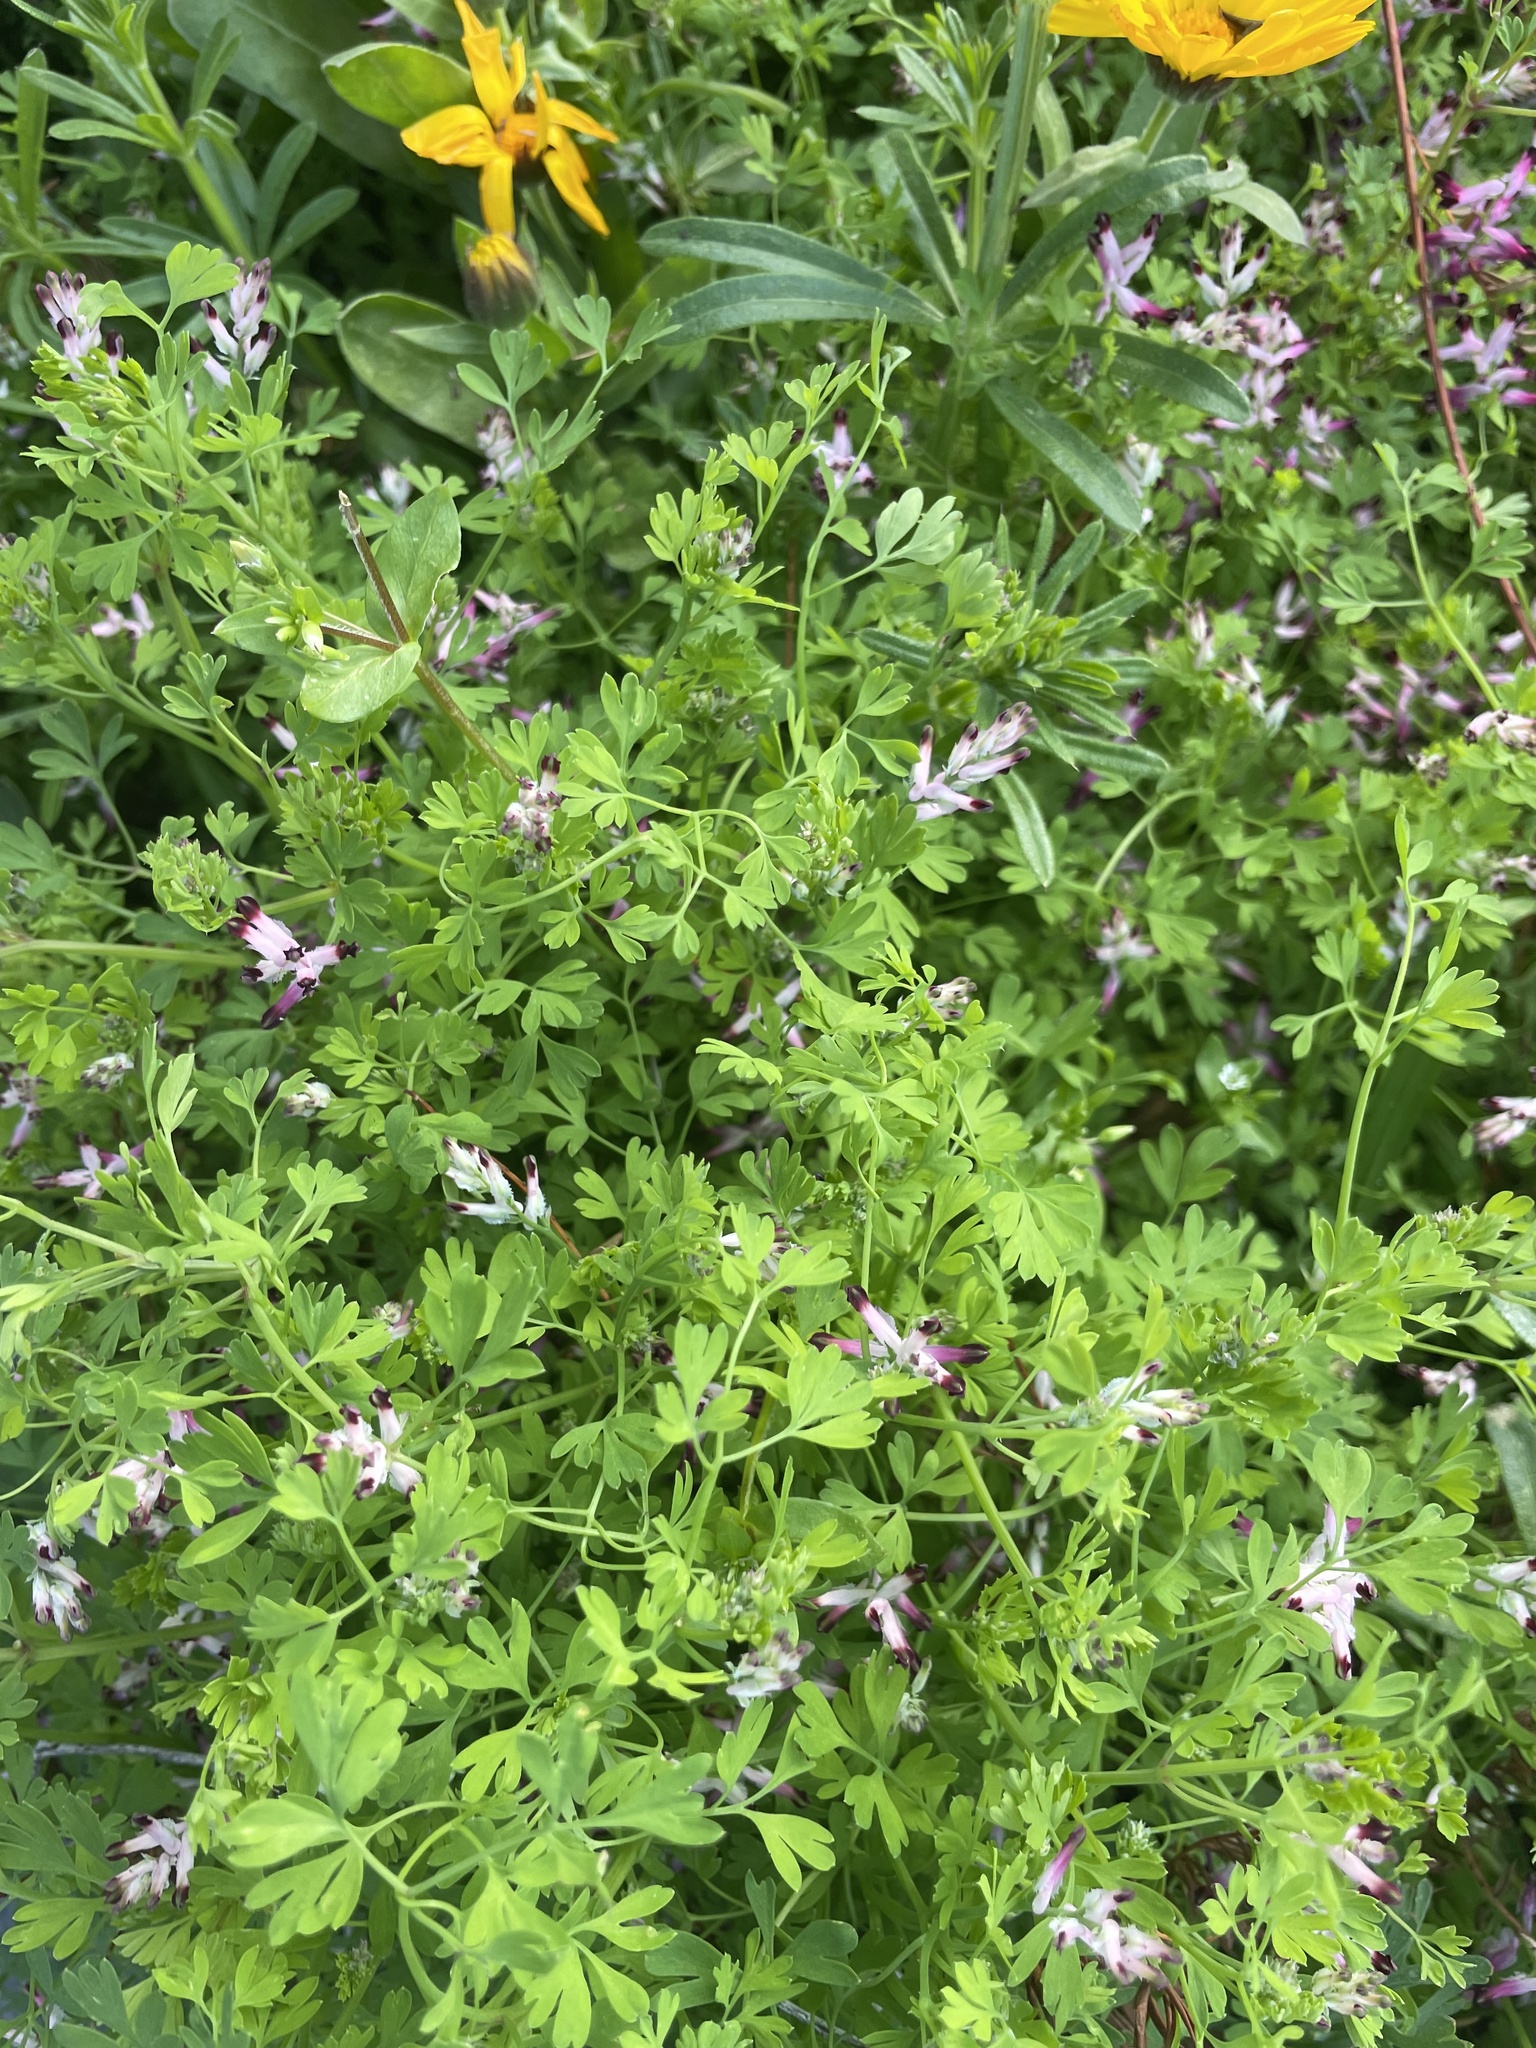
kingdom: Plantae
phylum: Tracheophyta
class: Magnoliopsida
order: Ranunculales
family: Papaveraceae
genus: Fumaria
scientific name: Fumaria muralis
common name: Common ramping-fumitory
